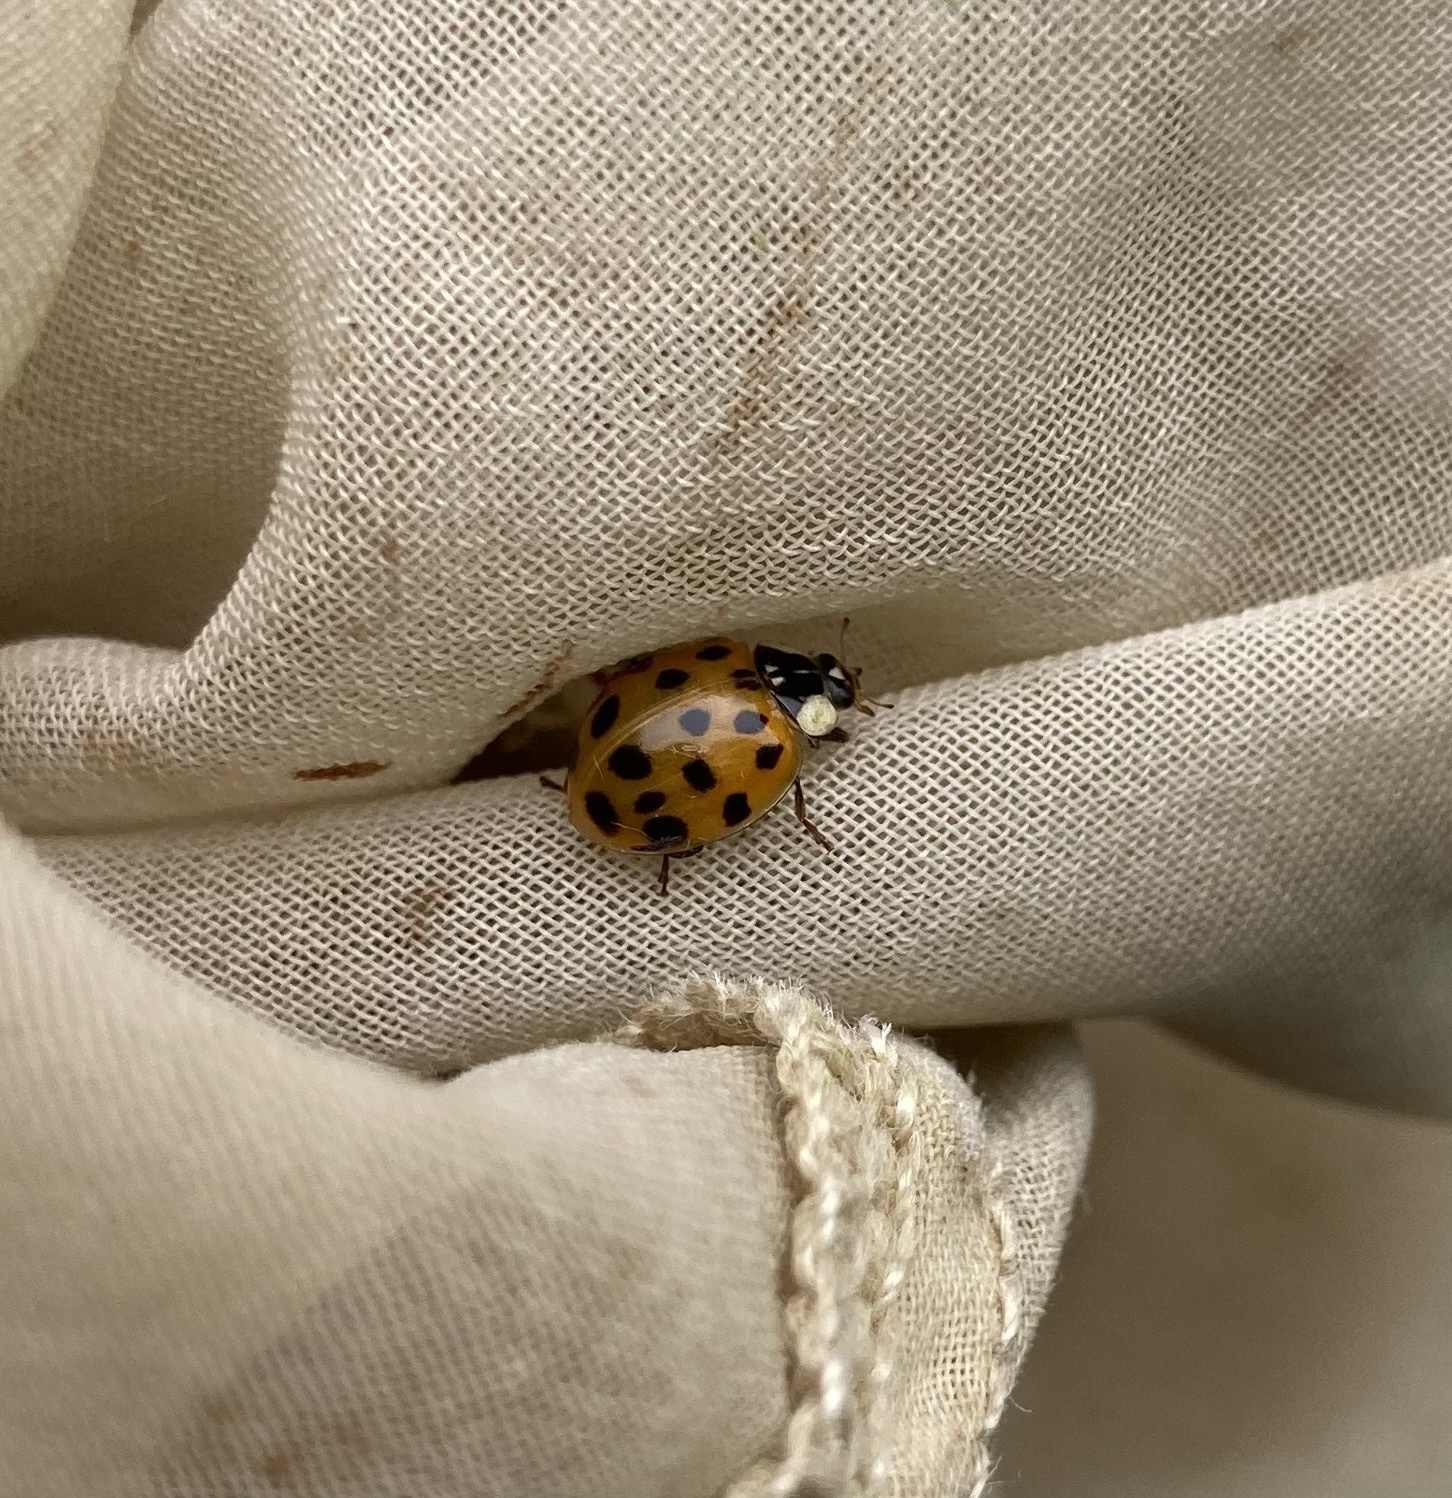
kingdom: Animalia
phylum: Arthropoda
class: Insecta
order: Coleoptera
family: Coccinellidae
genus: Harmonia
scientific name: Harmonia axyridis
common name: Harlequin ladybird
